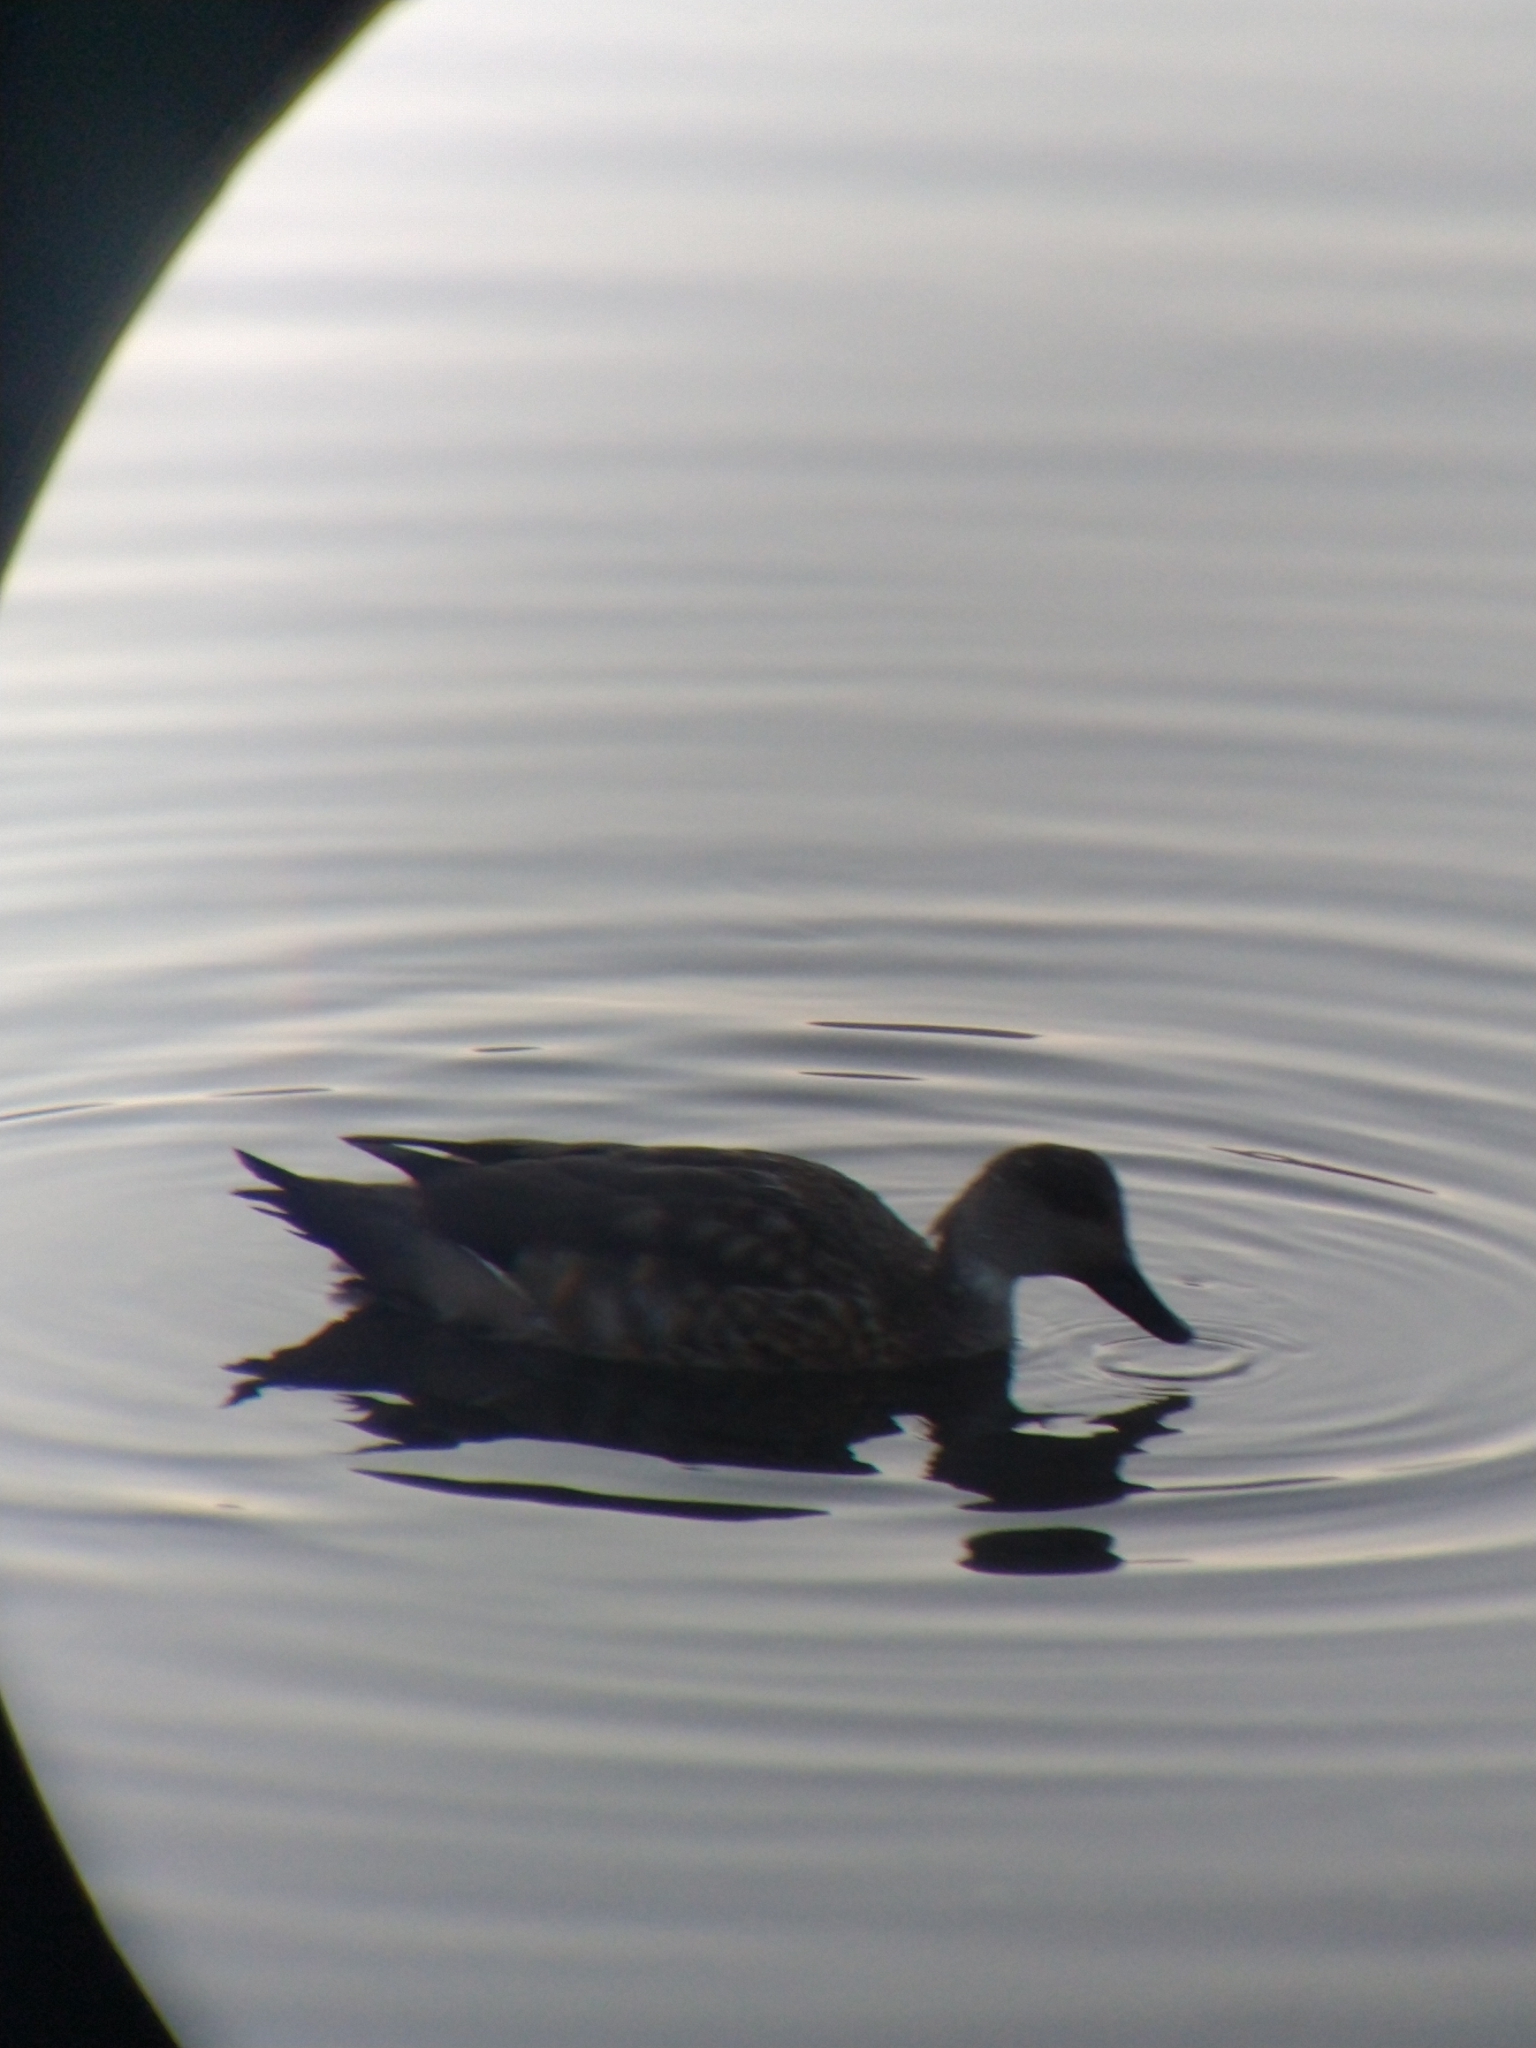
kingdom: Animalia
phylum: Chordata
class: Aves
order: Anseriformes
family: Anatidae
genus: Lophonetta
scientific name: Lophonetta specularioides
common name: Crested duck
